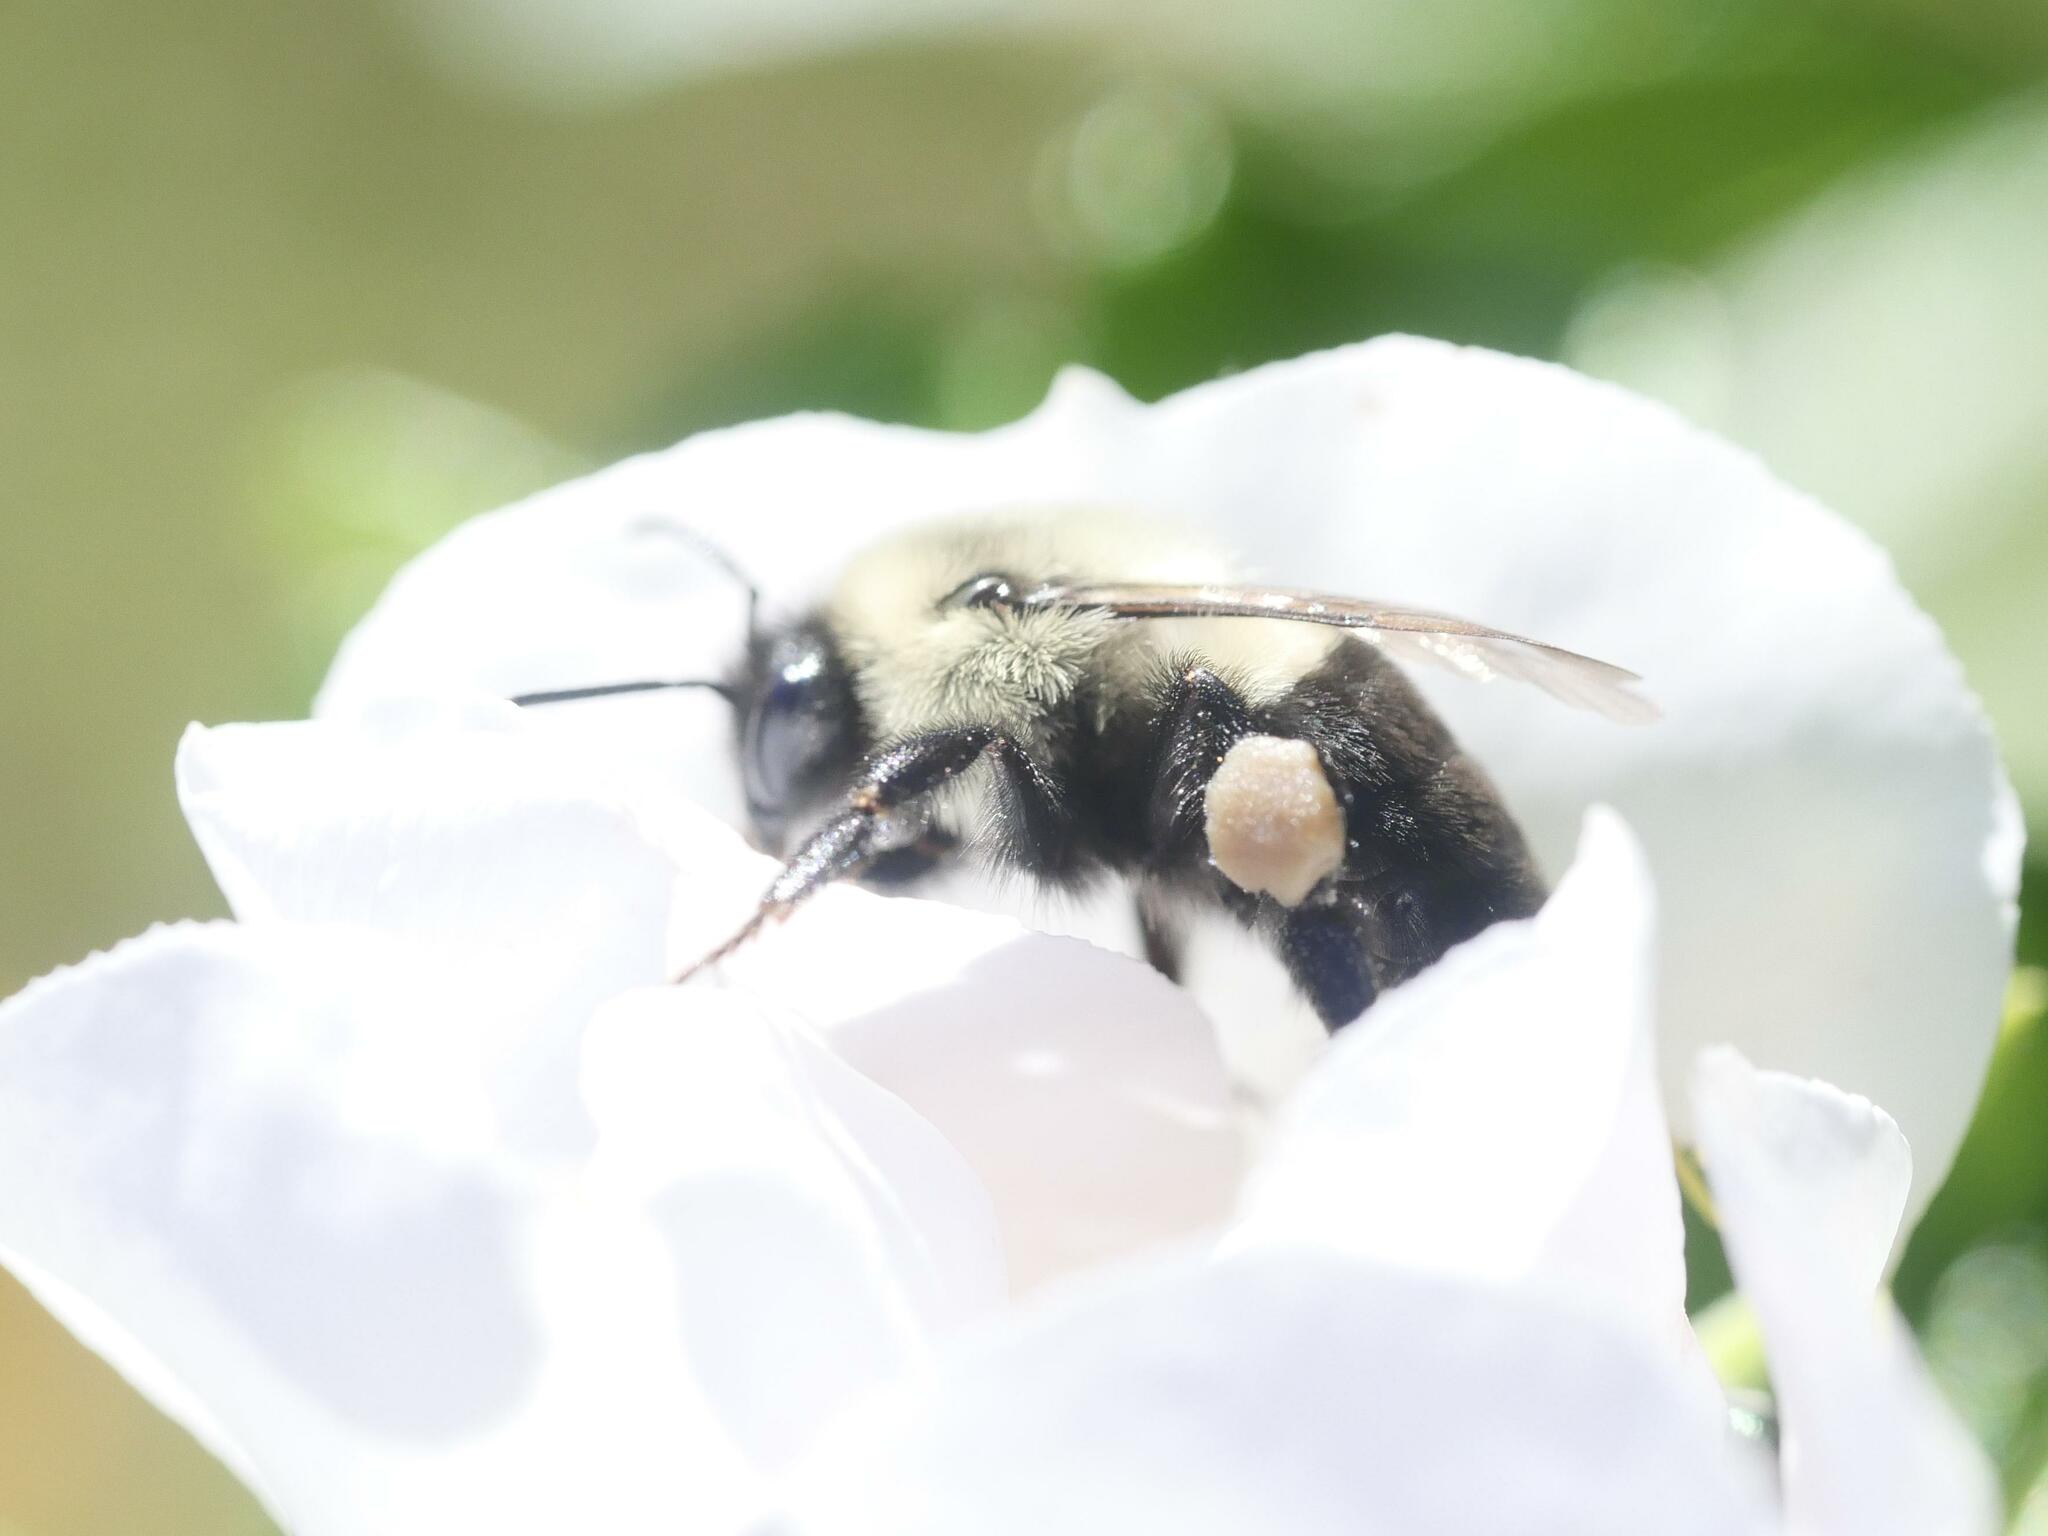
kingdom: Animalia
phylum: Arthropoda
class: Insecta
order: Hymenoptera
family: Apidae
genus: Bombus
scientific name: Bombus impatiens
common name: Common eastern bumble bee
